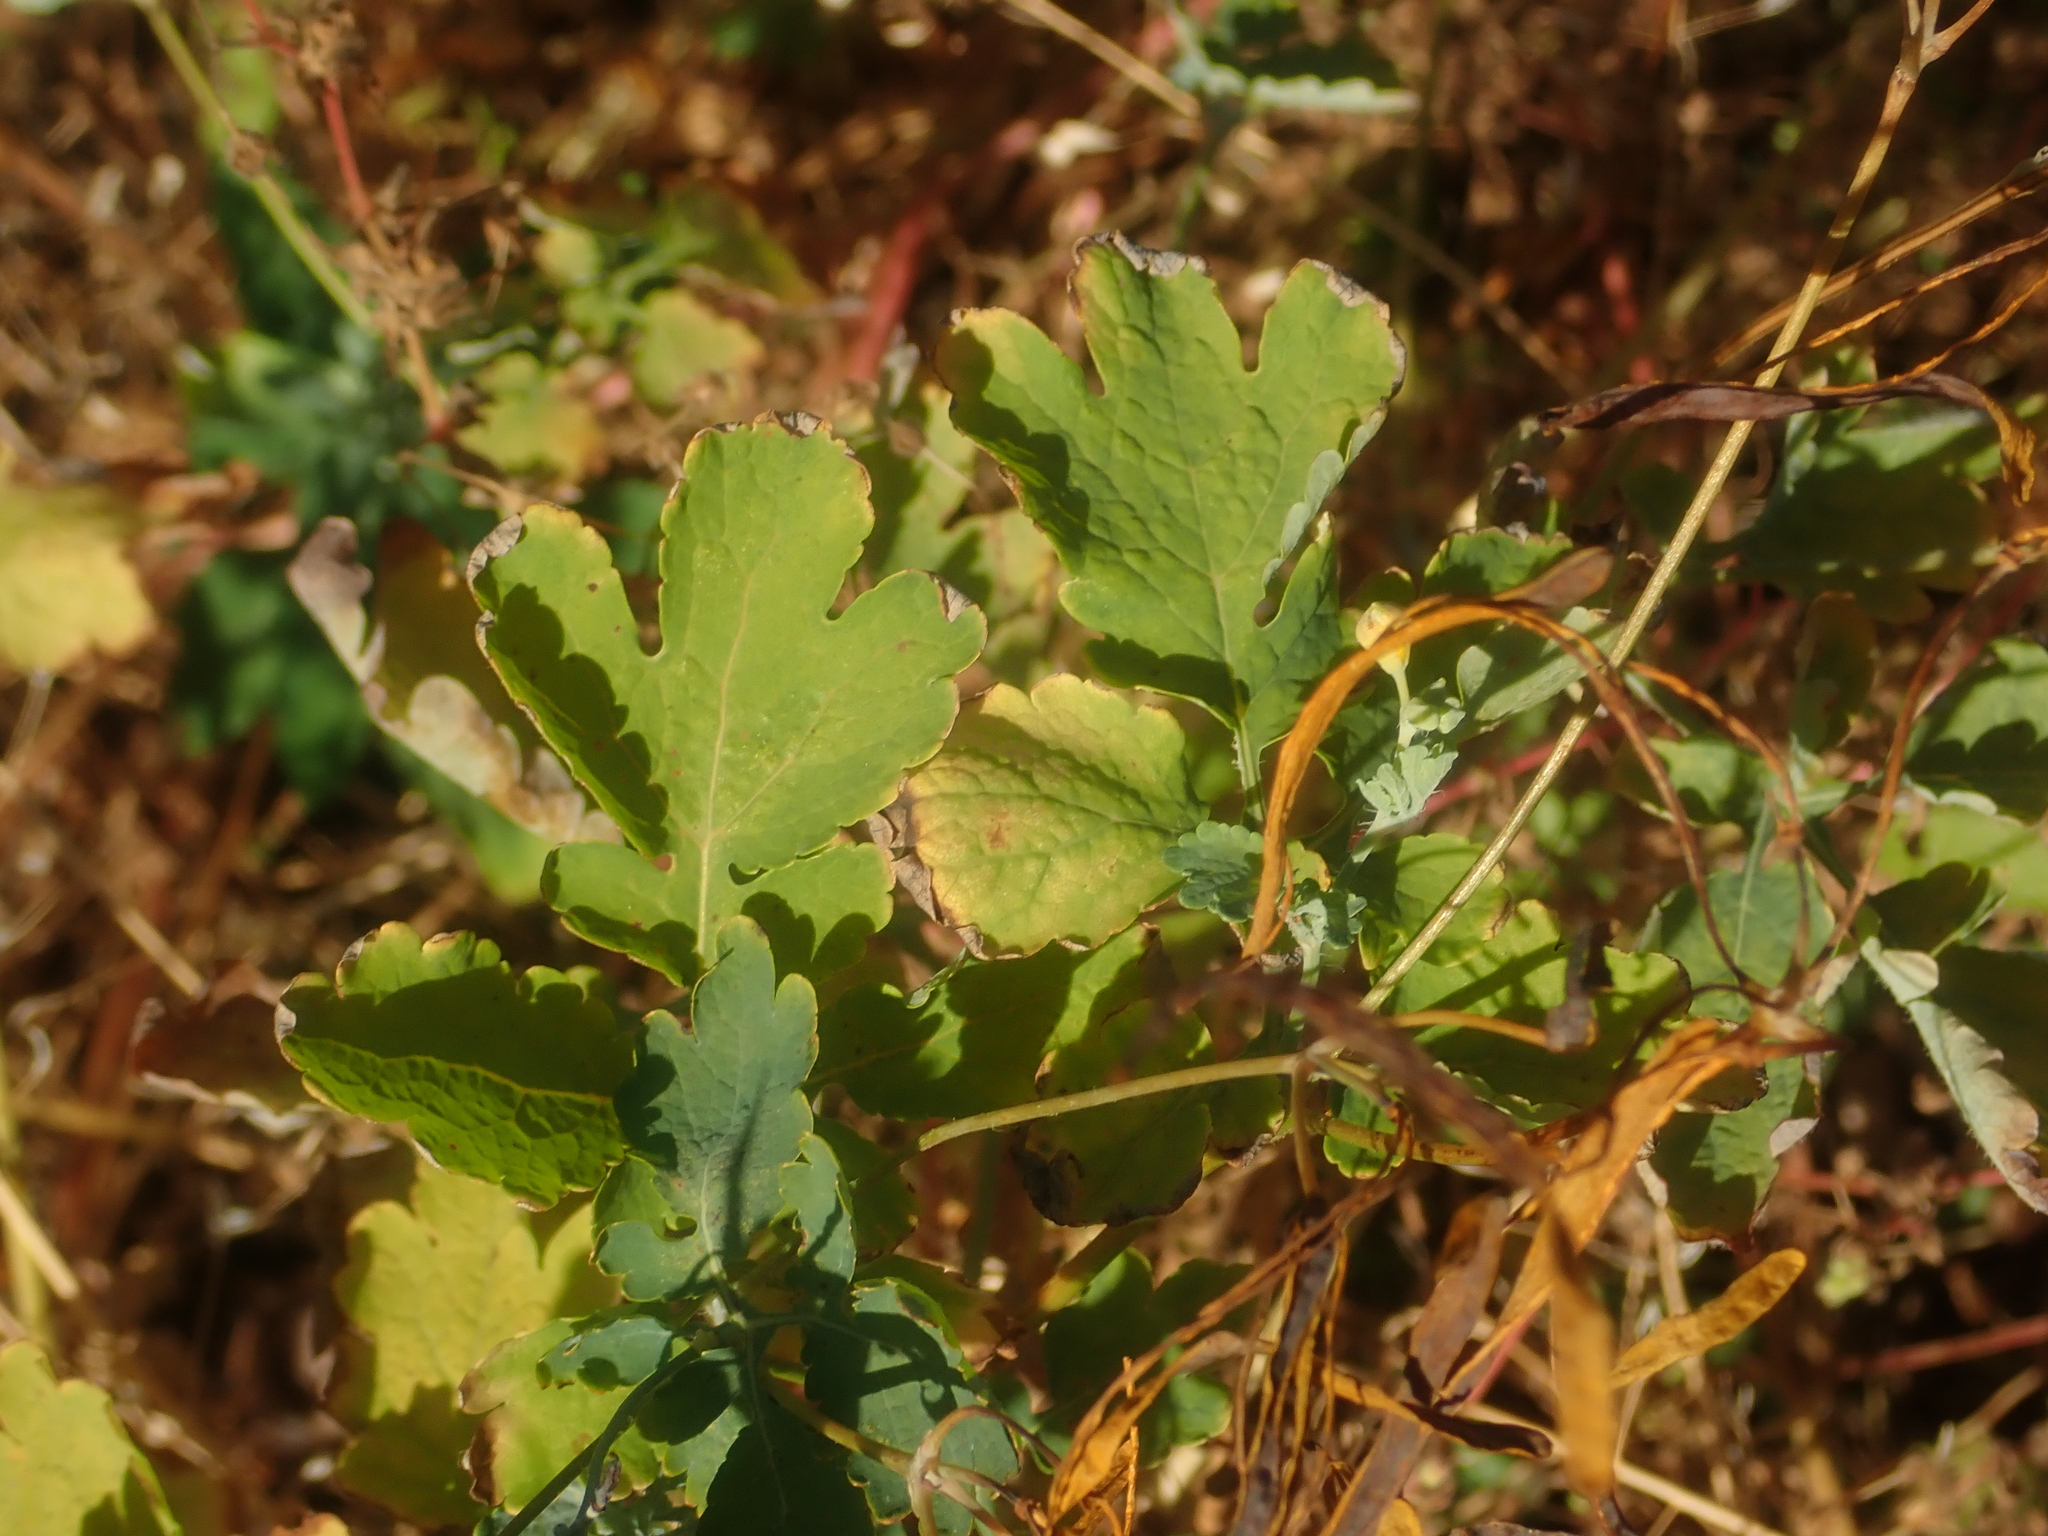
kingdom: Plantae
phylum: Tracheophyta
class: Magnoliopsida
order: Ranunculales
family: Papaveraceae
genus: Chelidonium
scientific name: Chelidonium majus
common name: Greater celandine
